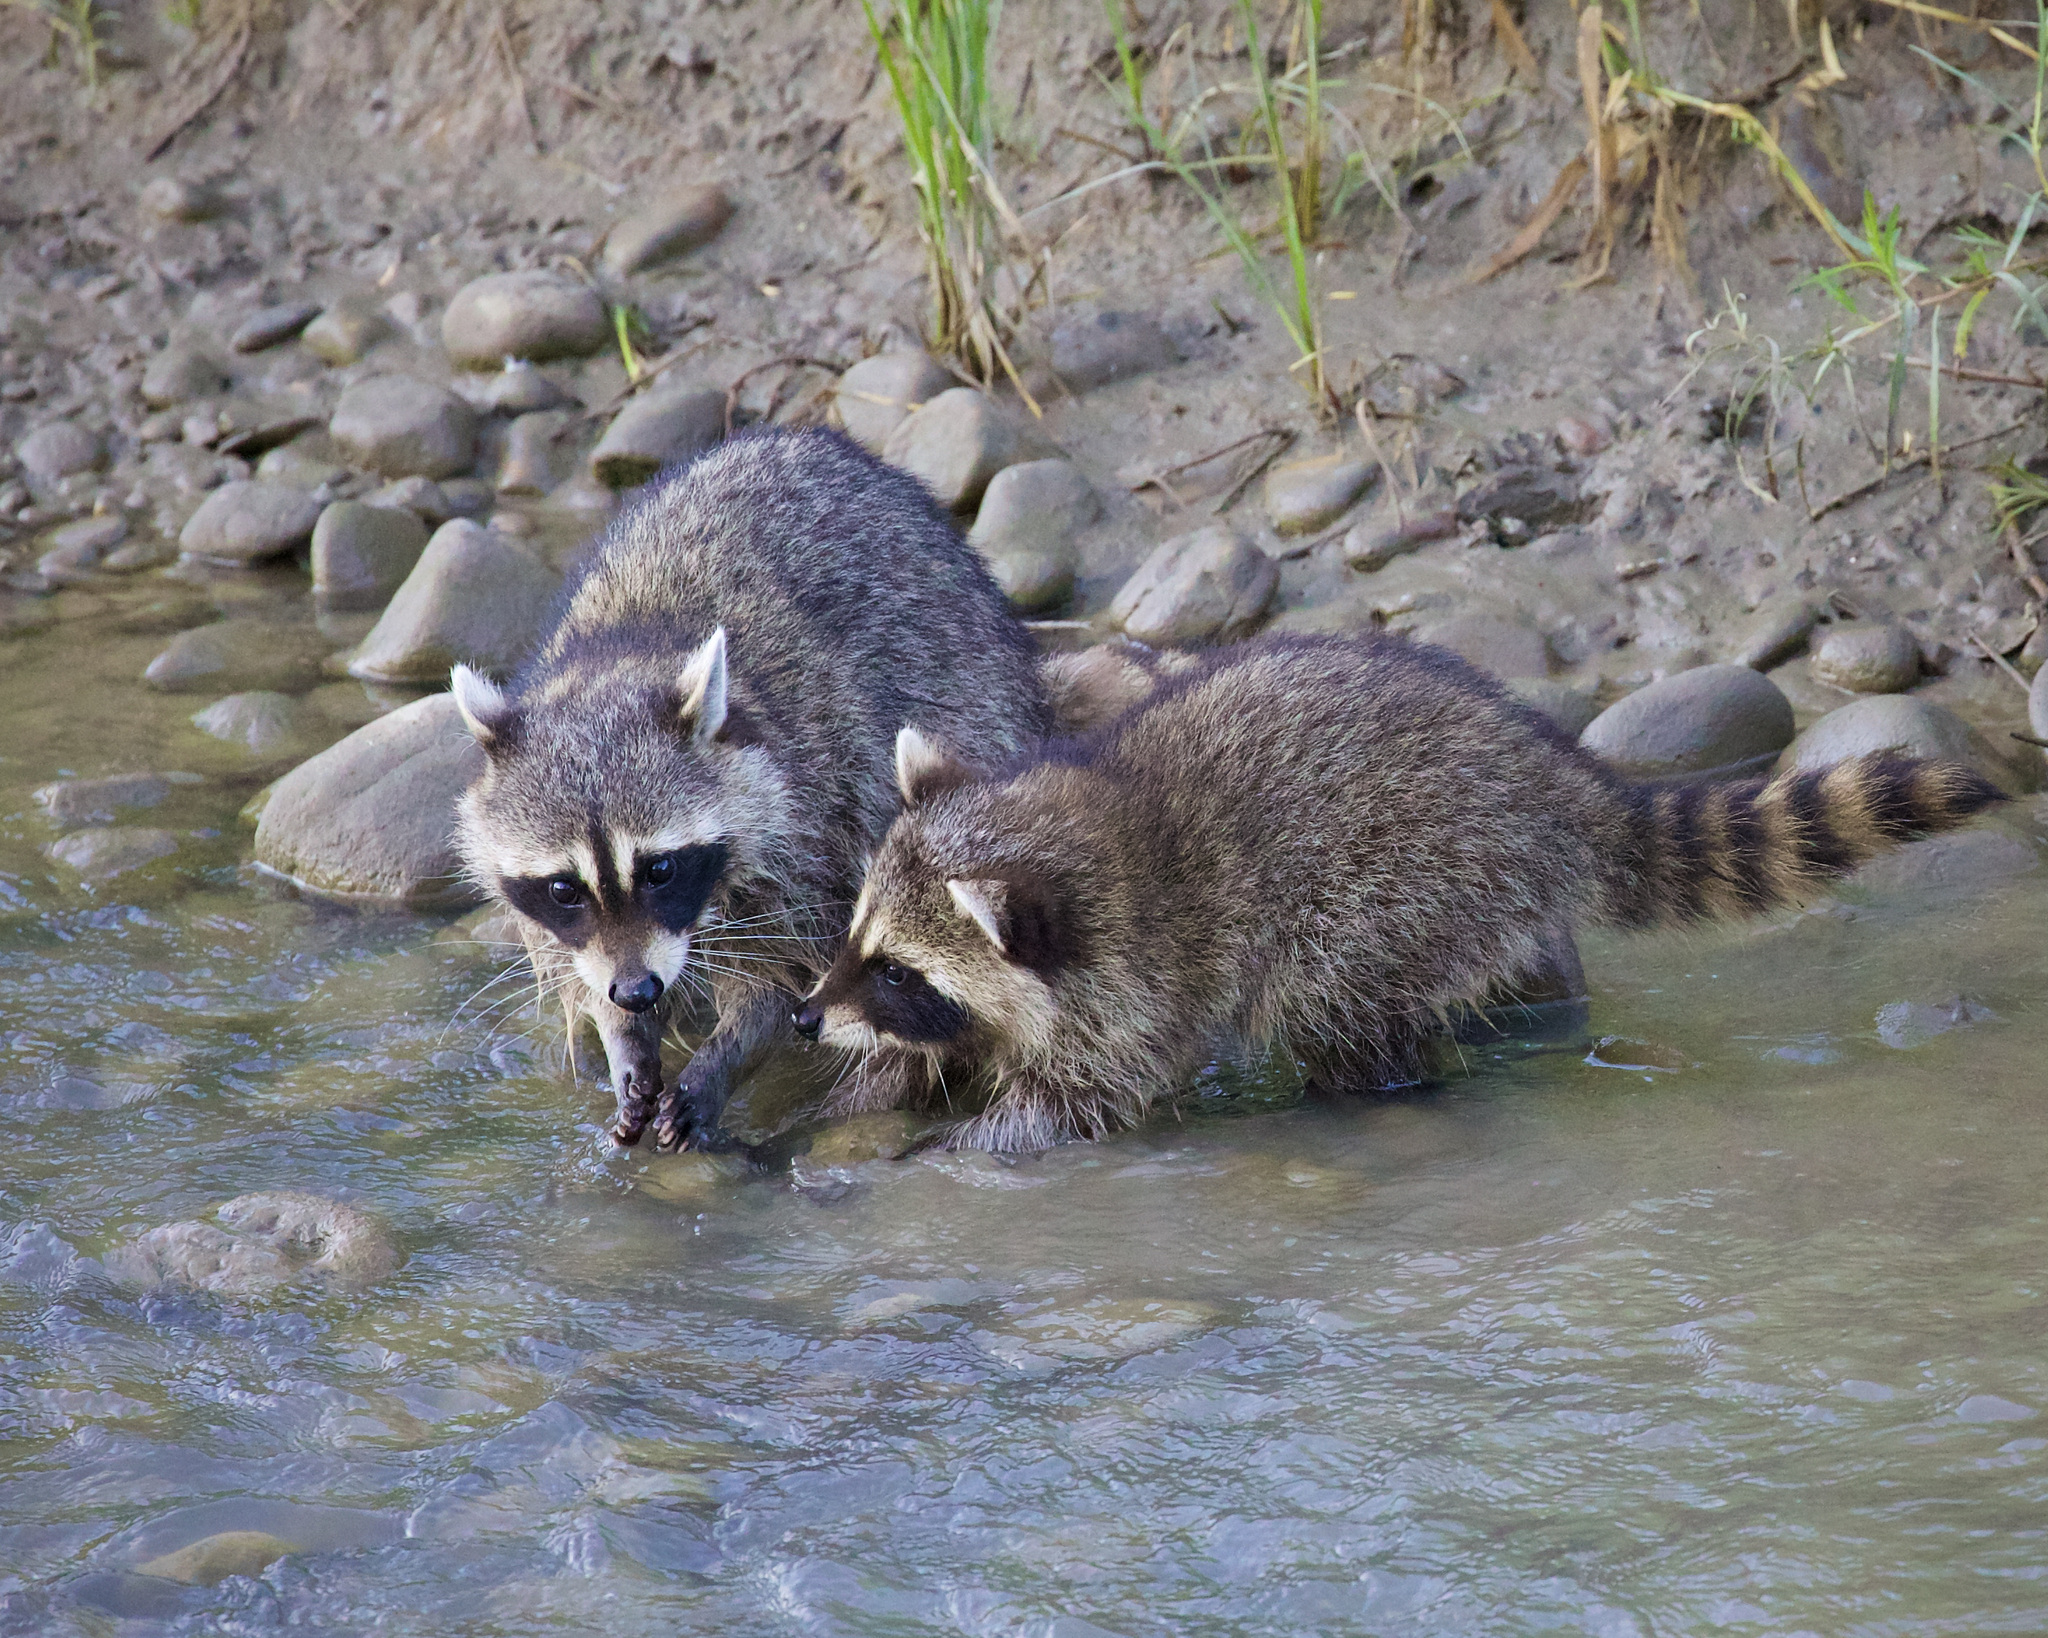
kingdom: Animalia
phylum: Chordata
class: Mammalia
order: Carnivora
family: Procyonidae
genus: Procyon
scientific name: Procyon lotor
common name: Raccoon
